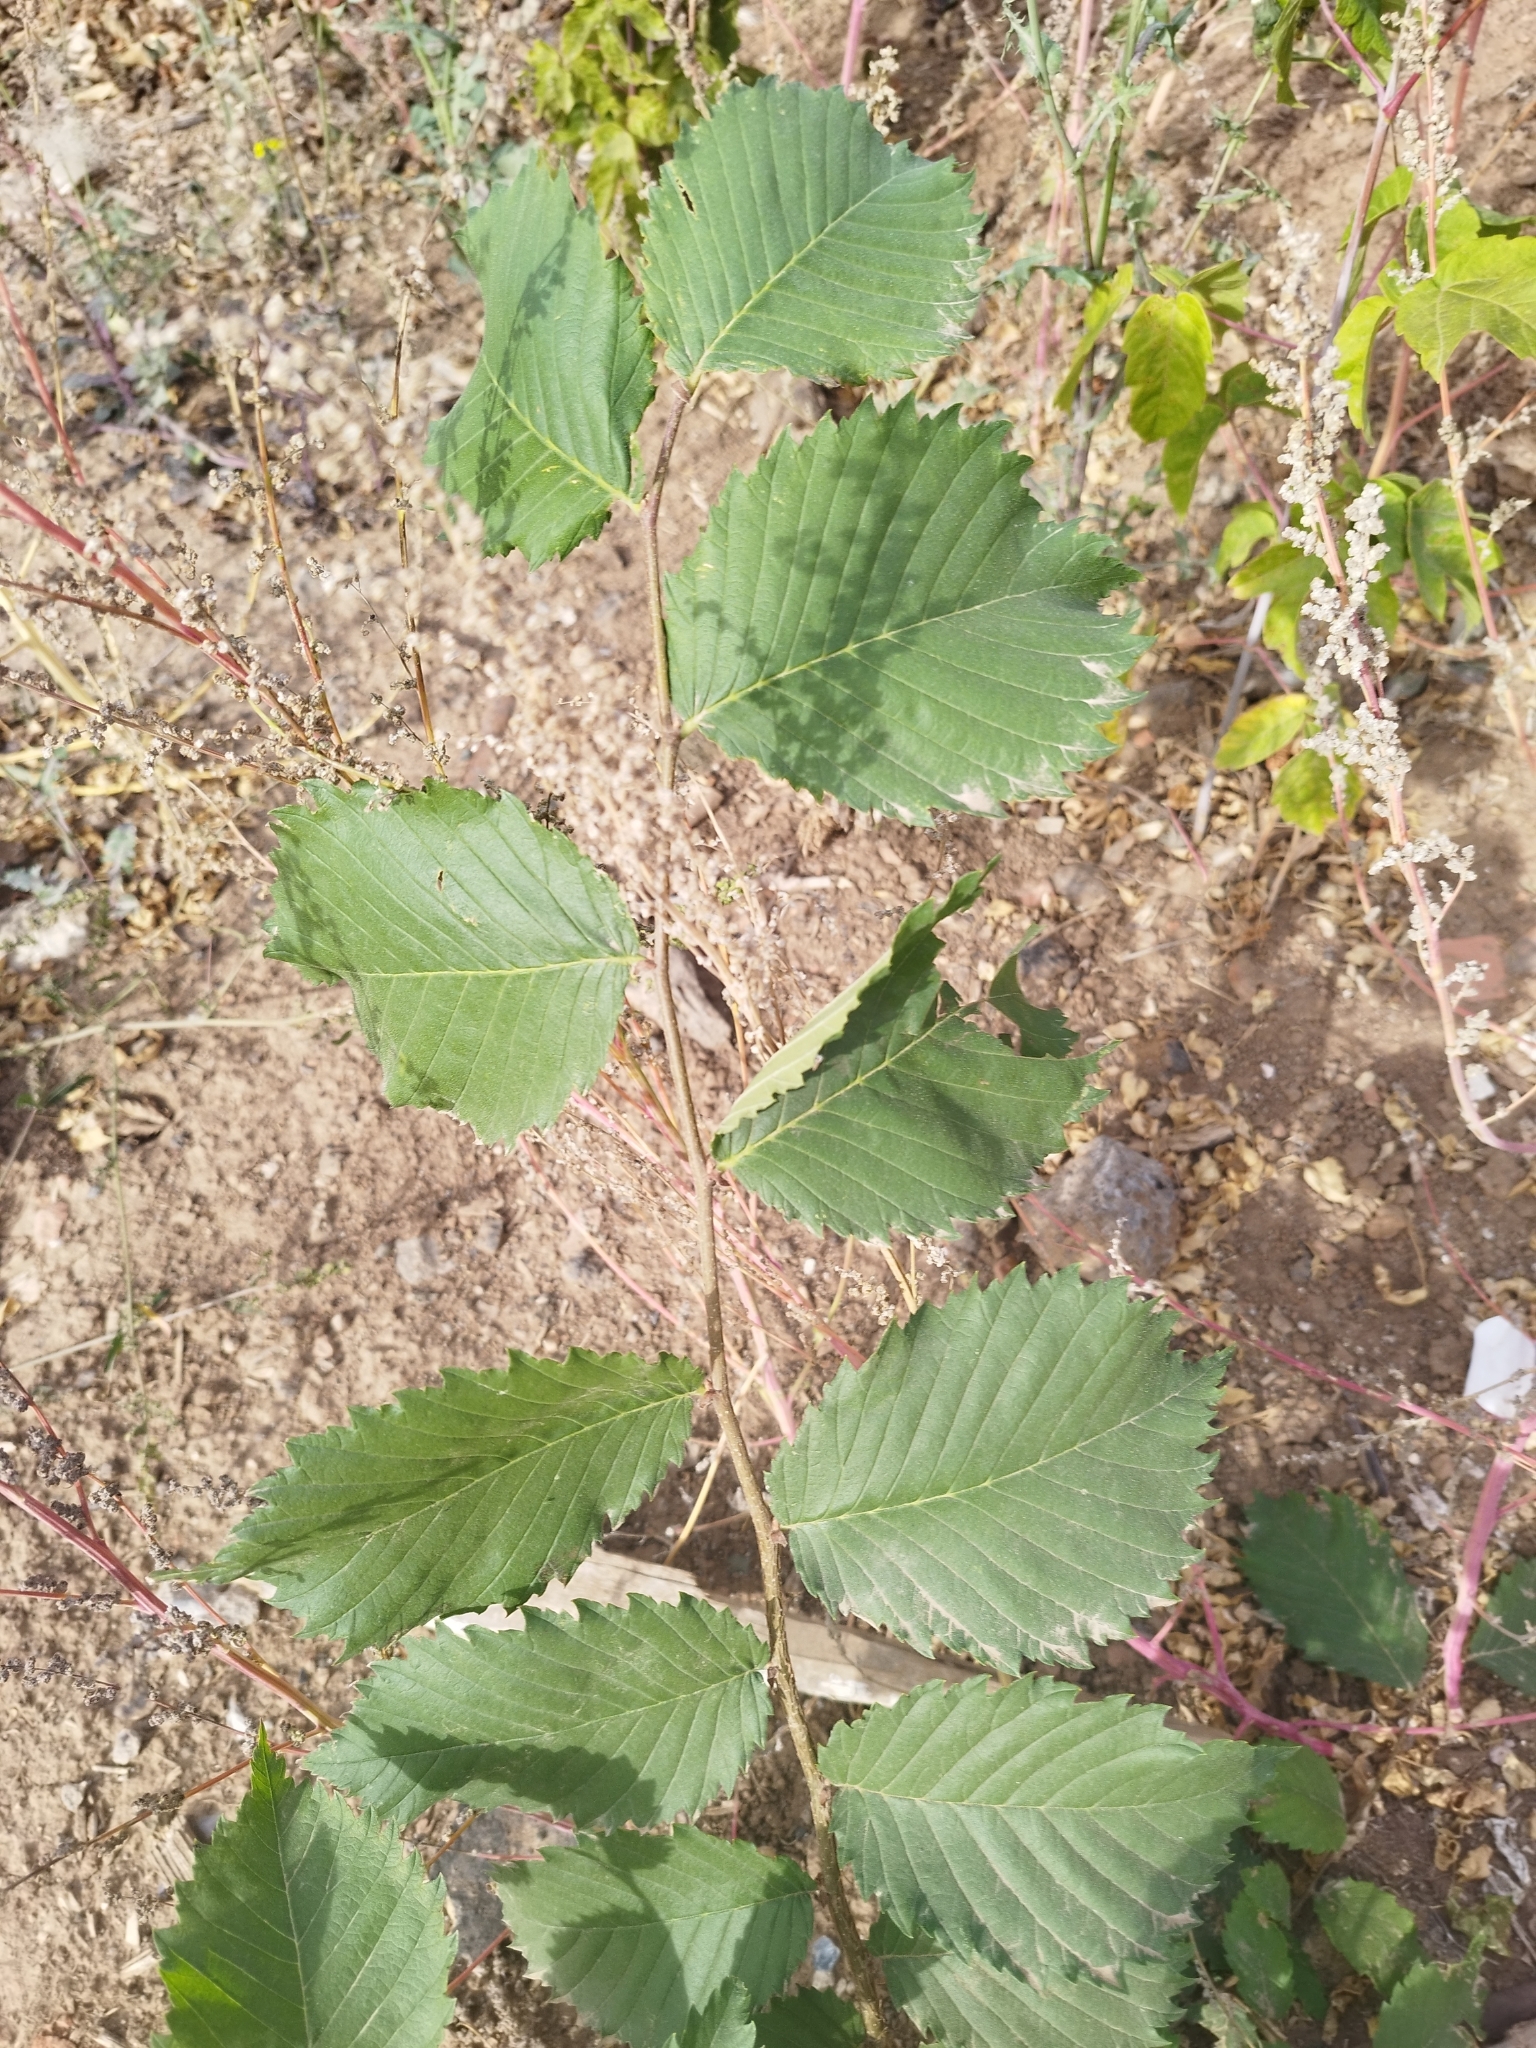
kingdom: Plantae
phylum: Tracheophyta
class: Magnoliopsida
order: Rosales
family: Ulmaceae
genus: Ulmus
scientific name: Ulmus laevis
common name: European white-elm
